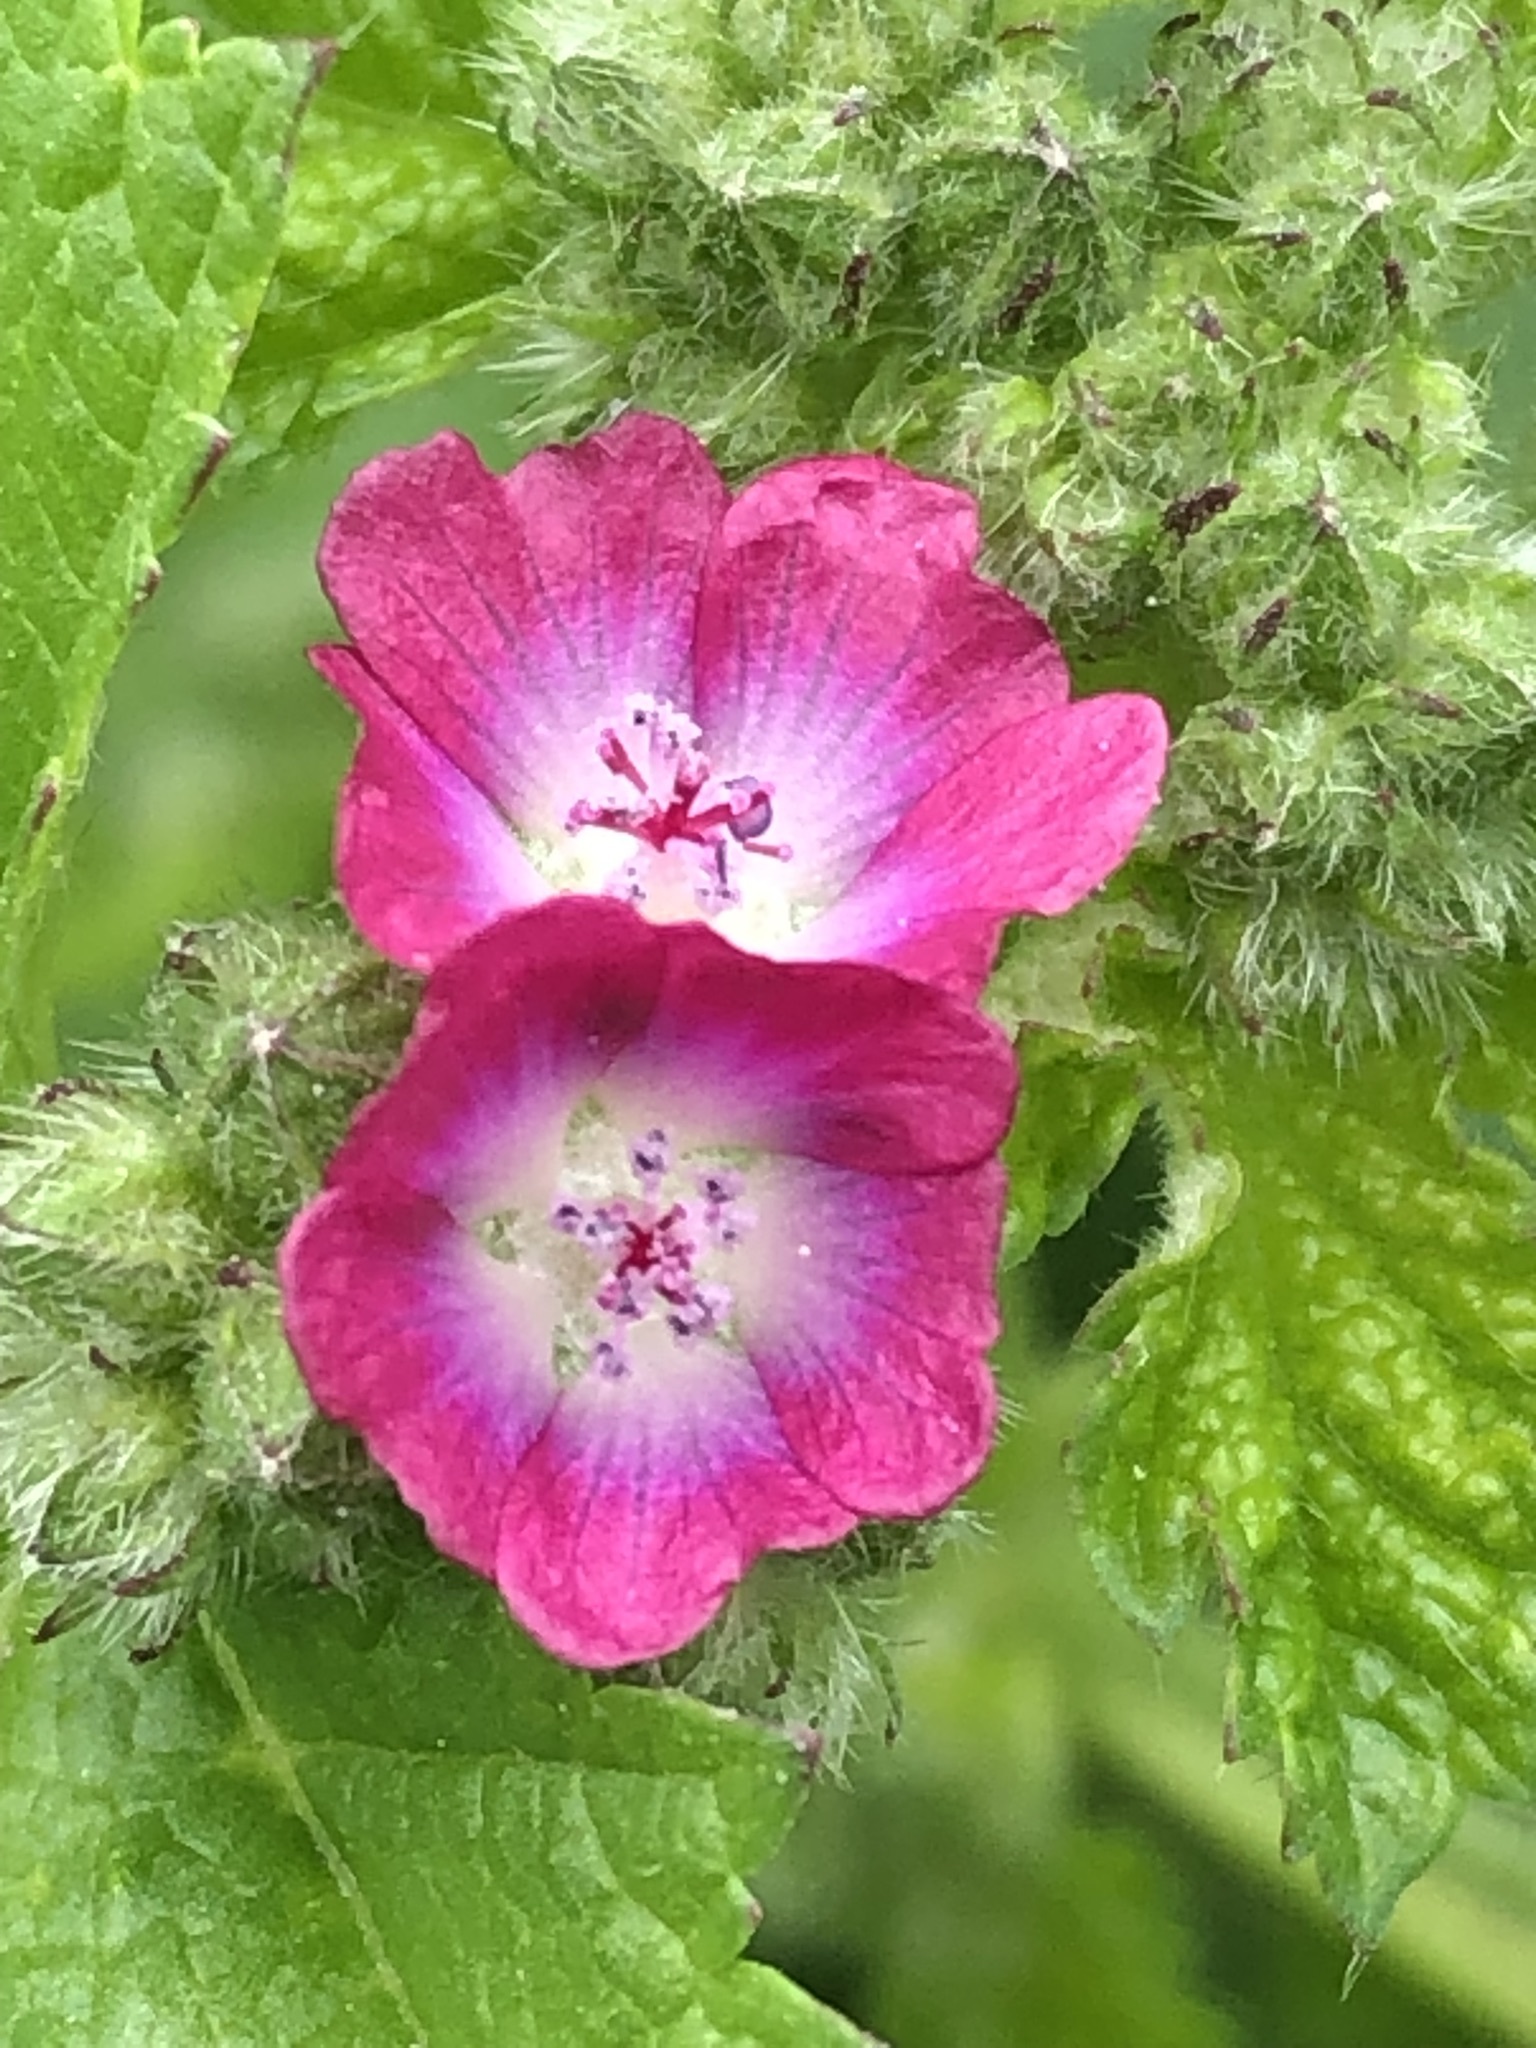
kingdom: Plantae
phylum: Tracheophyta
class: Magnoliopsida
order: Malvales
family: Malvaceae
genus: Fuertesimalva
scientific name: Fuertesimalva peruviana
